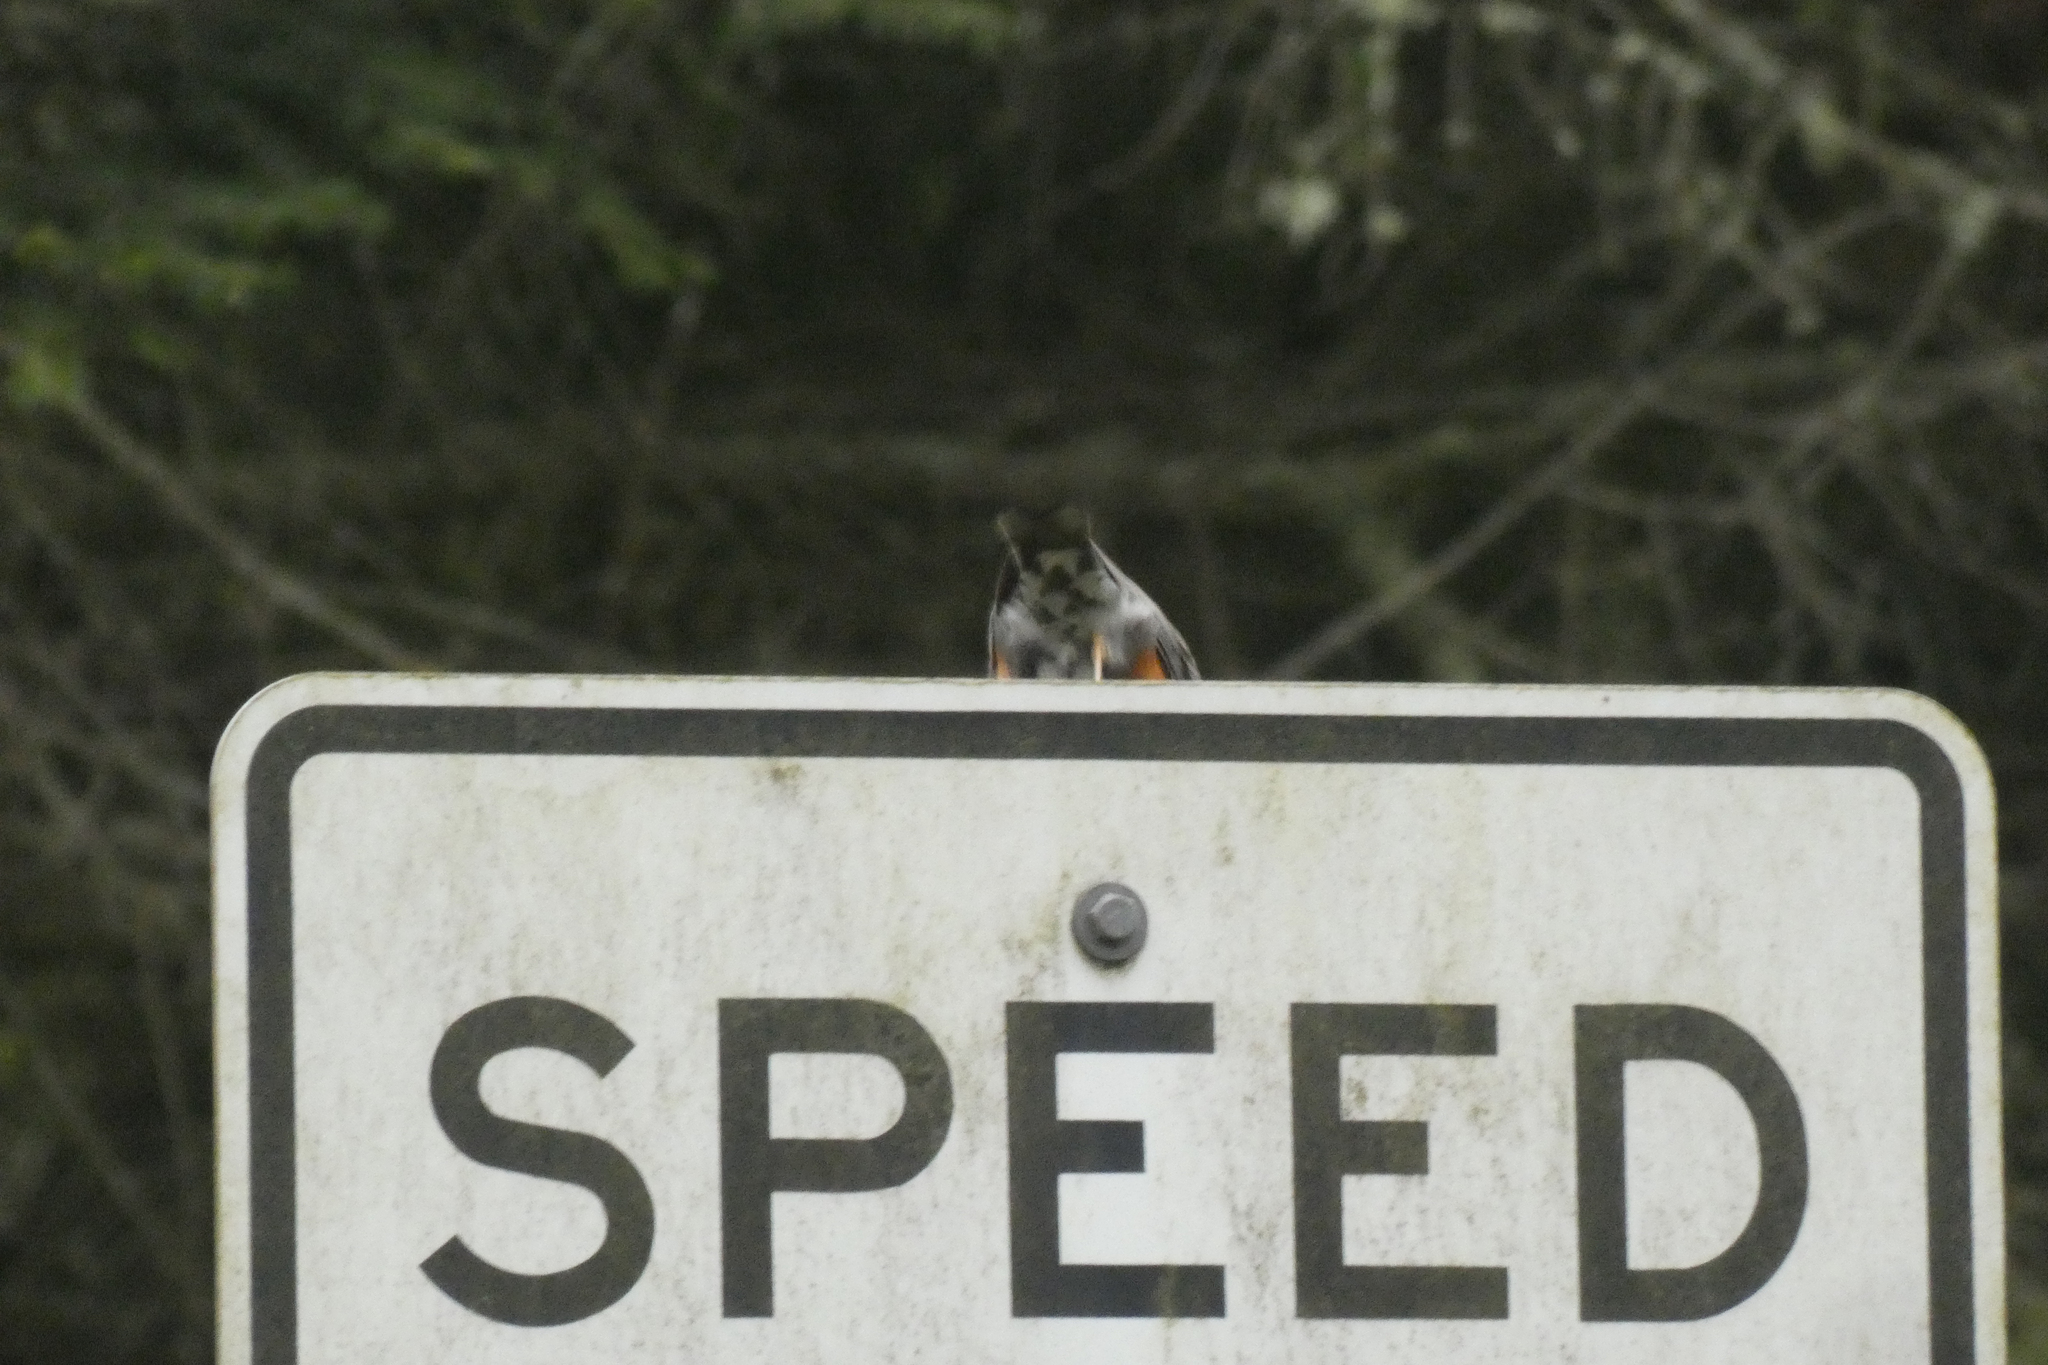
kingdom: Animalia
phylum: Chordata
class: Aves
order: Passeriformes
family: Turdidae
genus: Turdus
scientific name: Turdus migratorius
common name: American robin
